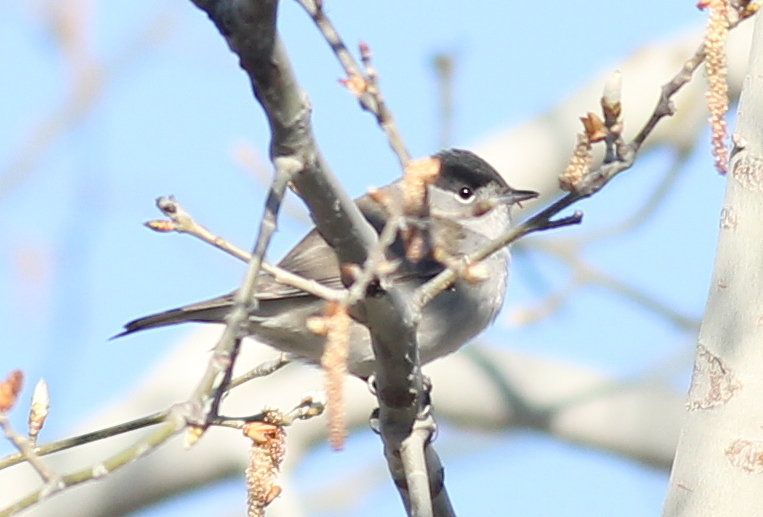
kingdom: Animalia
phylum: Chordata
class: Aves
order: Passeriformes
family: Sylviidae
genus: Sylvia
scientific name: Sylvia atricapilla
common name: Eurasian blackcap
